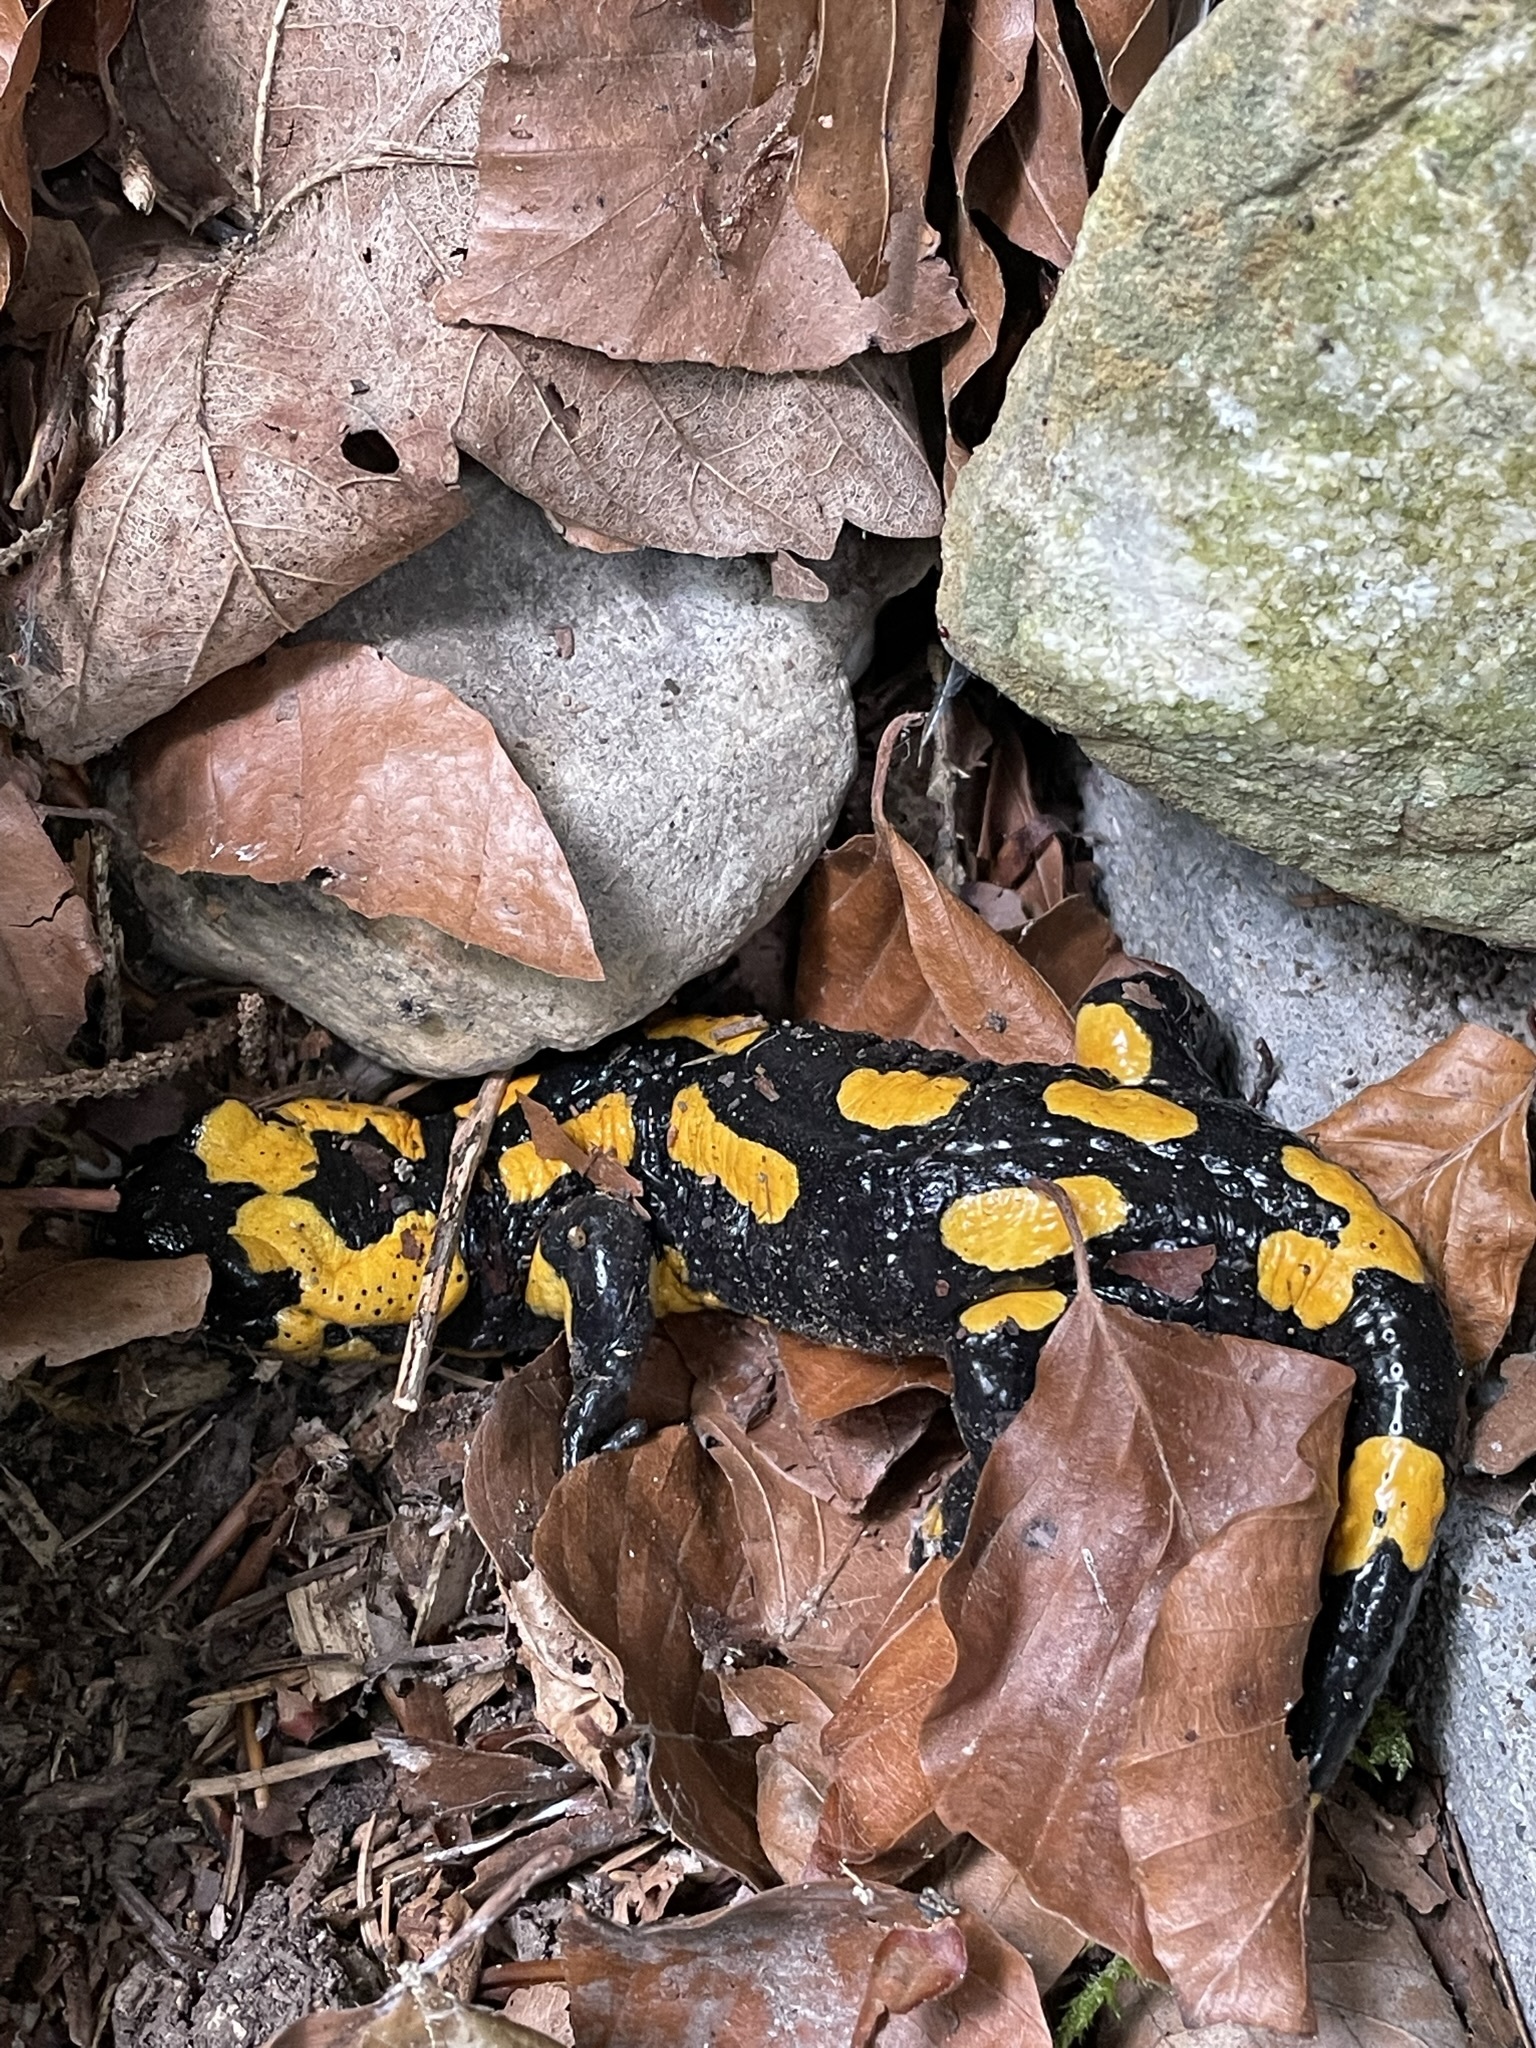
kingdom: Animalia
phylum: Chordata
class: Amphibia
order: Caudata
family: Salamandridae
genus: Salamandra
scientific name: Salamandra salamandra
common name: Fire salamander
